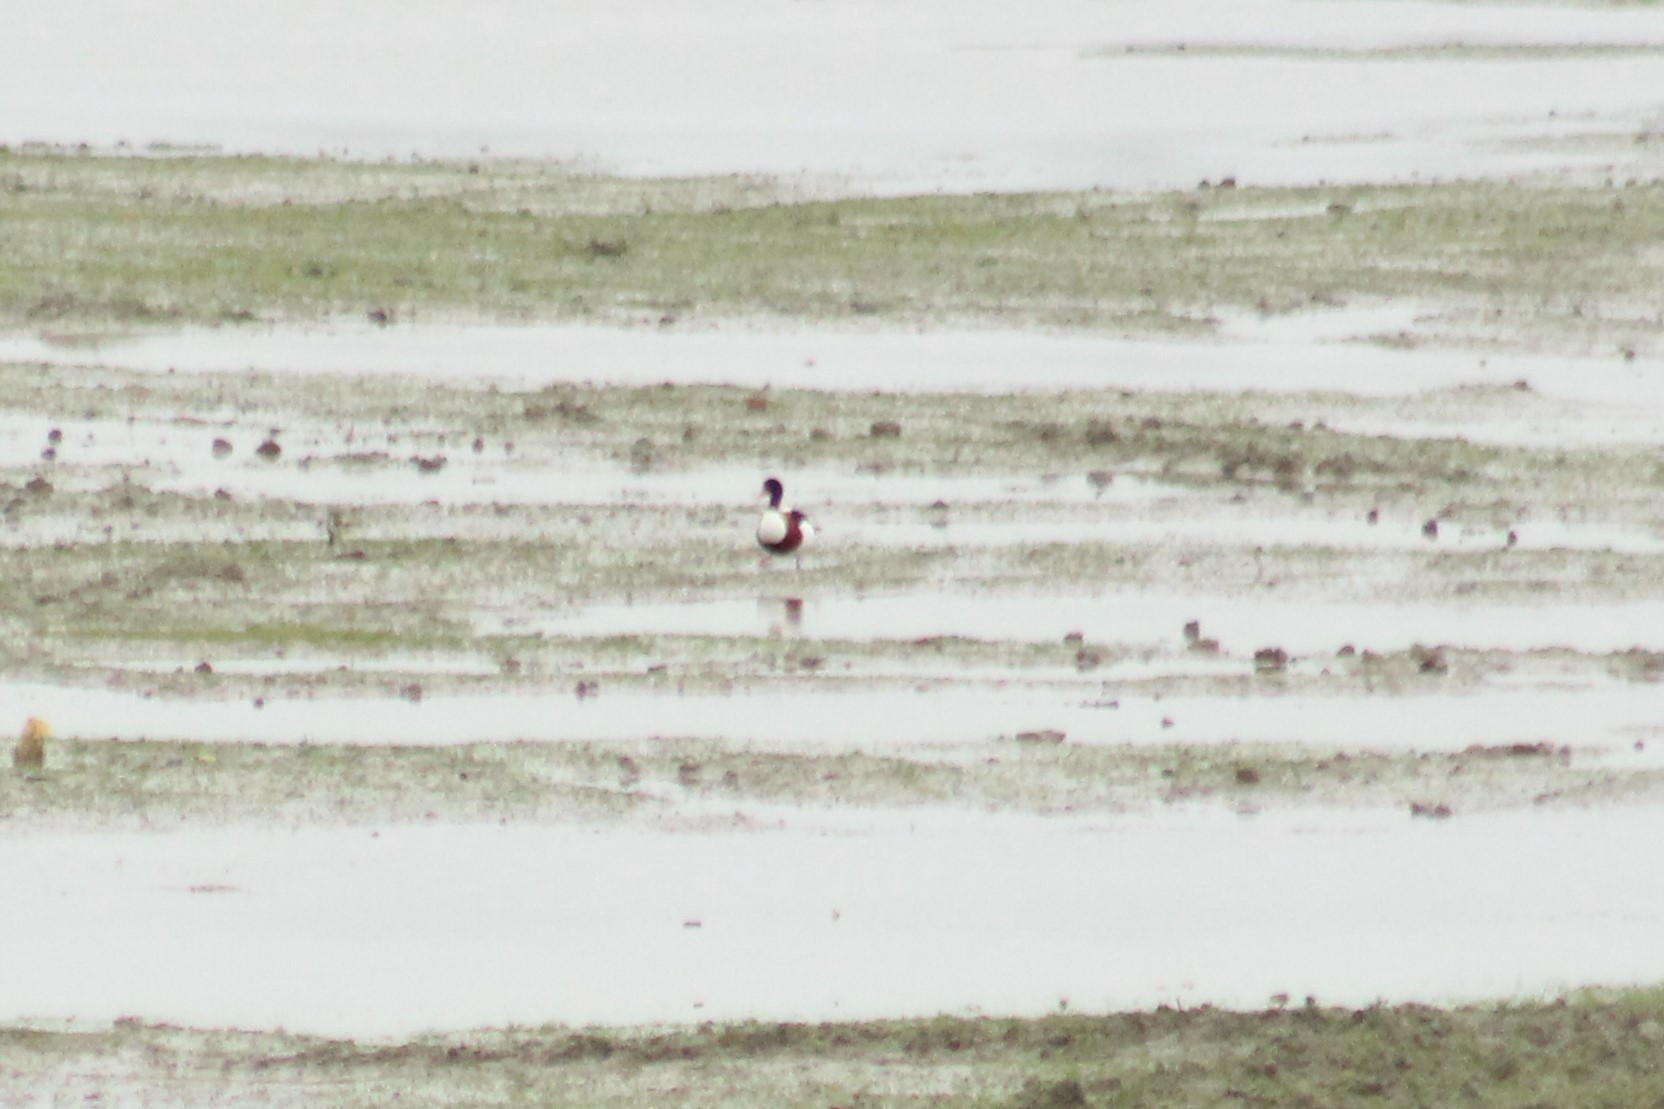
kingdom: Animalia
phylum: Chordata
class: Aves
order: Anseriformes
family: Anatidae
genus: Tadorna
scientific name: Tadorna tadorna
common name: Common shelduck
